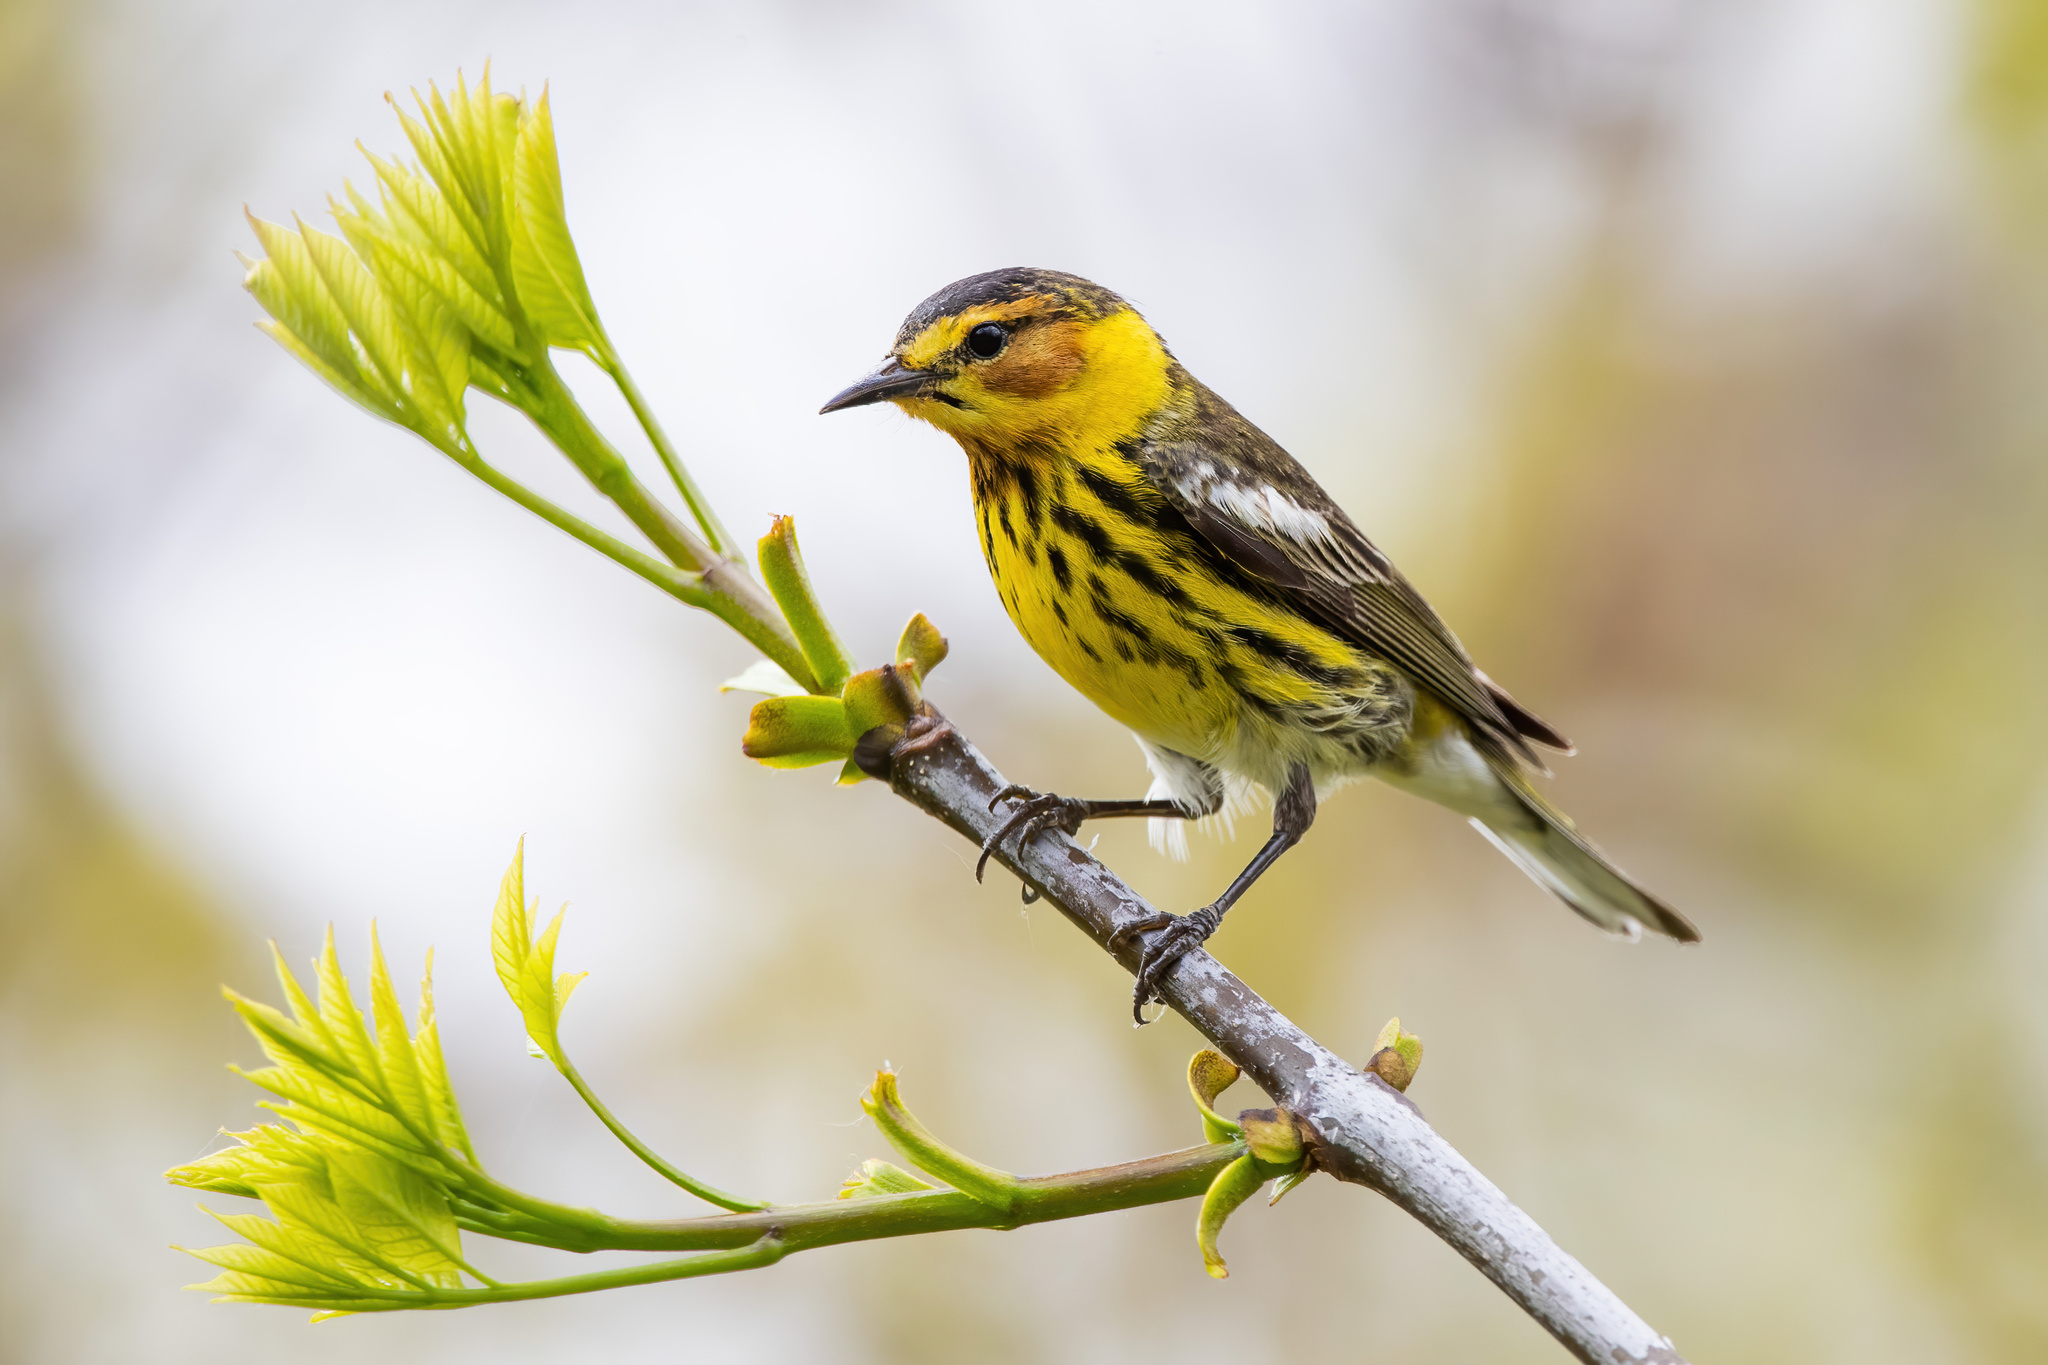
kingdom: Animalia
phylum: Chordata
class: Aves
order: Passeriformes
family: Parulidae
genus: Setophaga
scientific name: Setophaga tigrina
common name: Cape may warbler
